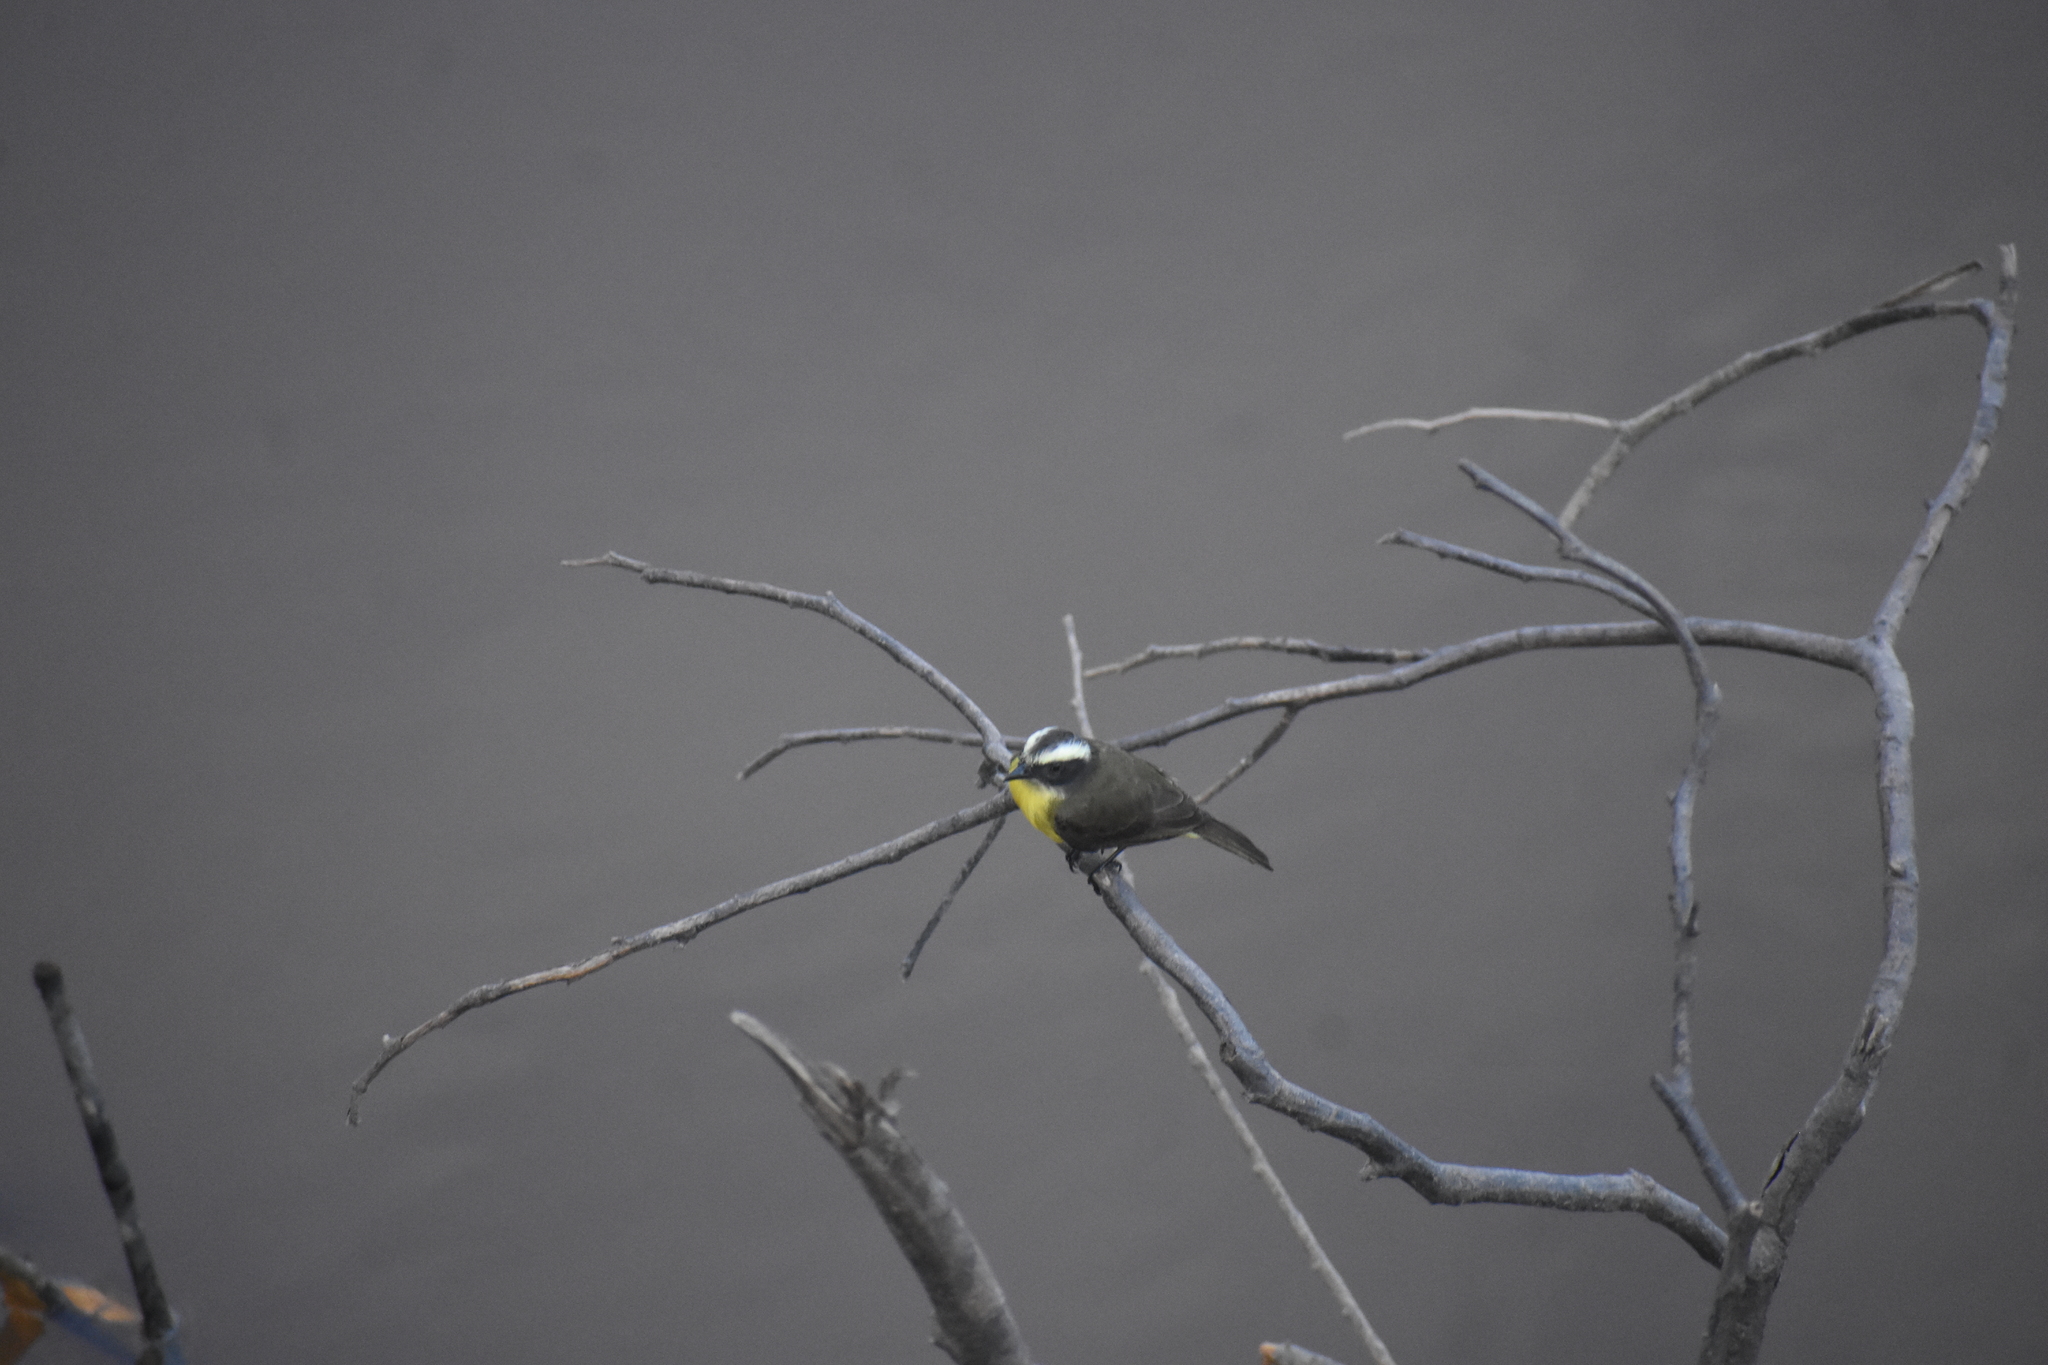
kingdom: Animalia
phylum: Chordata
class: Aves
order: Passeriformes
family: Tyrannidae
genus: Myiozetetes
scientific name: Myiozetetes cayanensis
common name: Rusty-margined flycatcher
